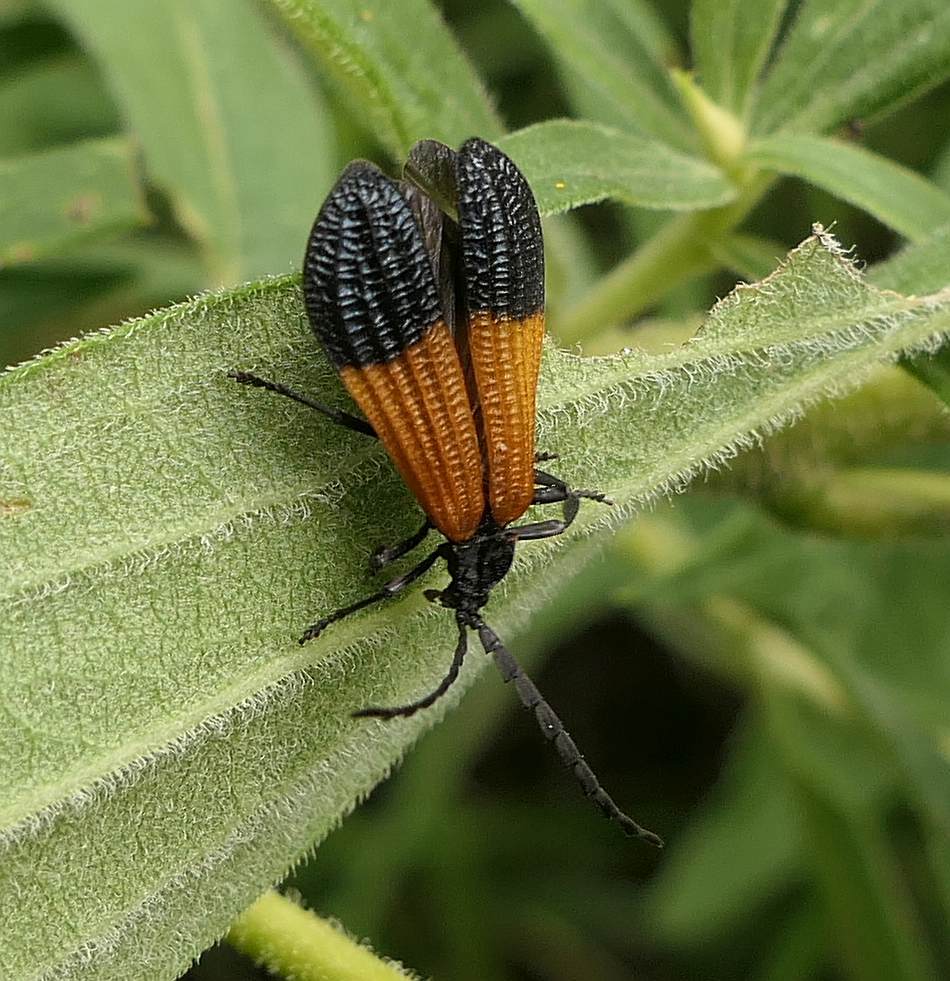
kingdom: Animalia
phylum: Arthropoda
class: Insecta
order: Coleoptera
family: Lycidae
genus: Calopteron
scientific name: Calopteron terminale
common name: End band net-winged beetle
